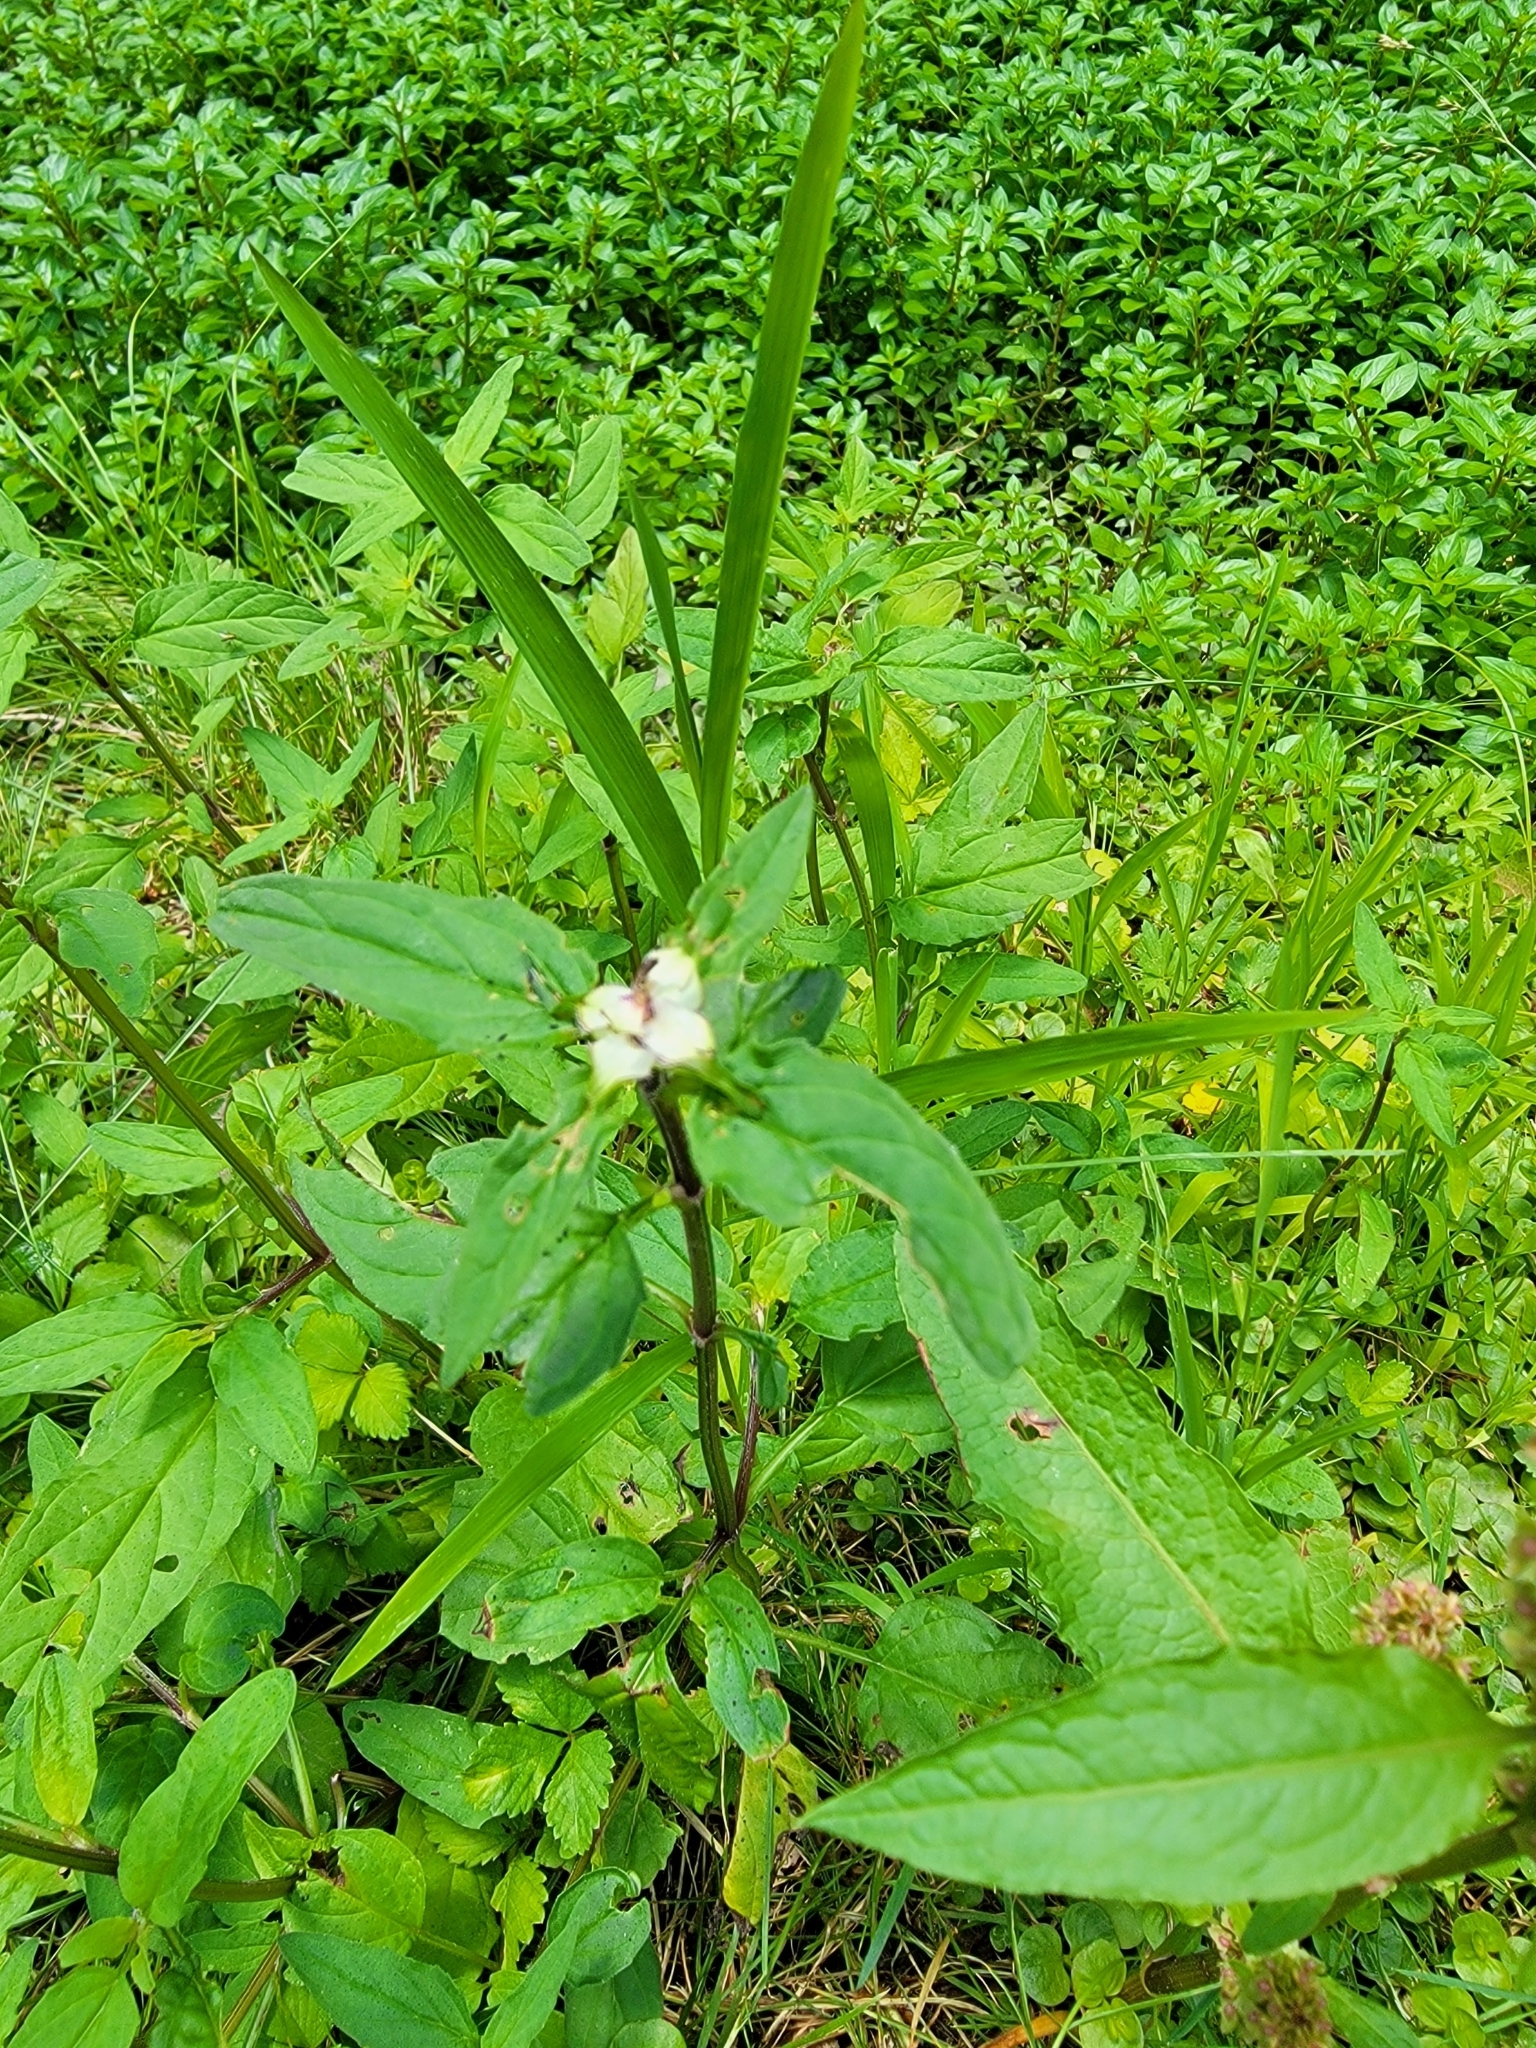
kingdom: Plantae
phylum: Tracheophyta
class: Magnoliopsida
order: Lamiales
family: Lamiaceae
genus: Prunella
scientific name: Prunella vulgaris
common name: Heal-all
